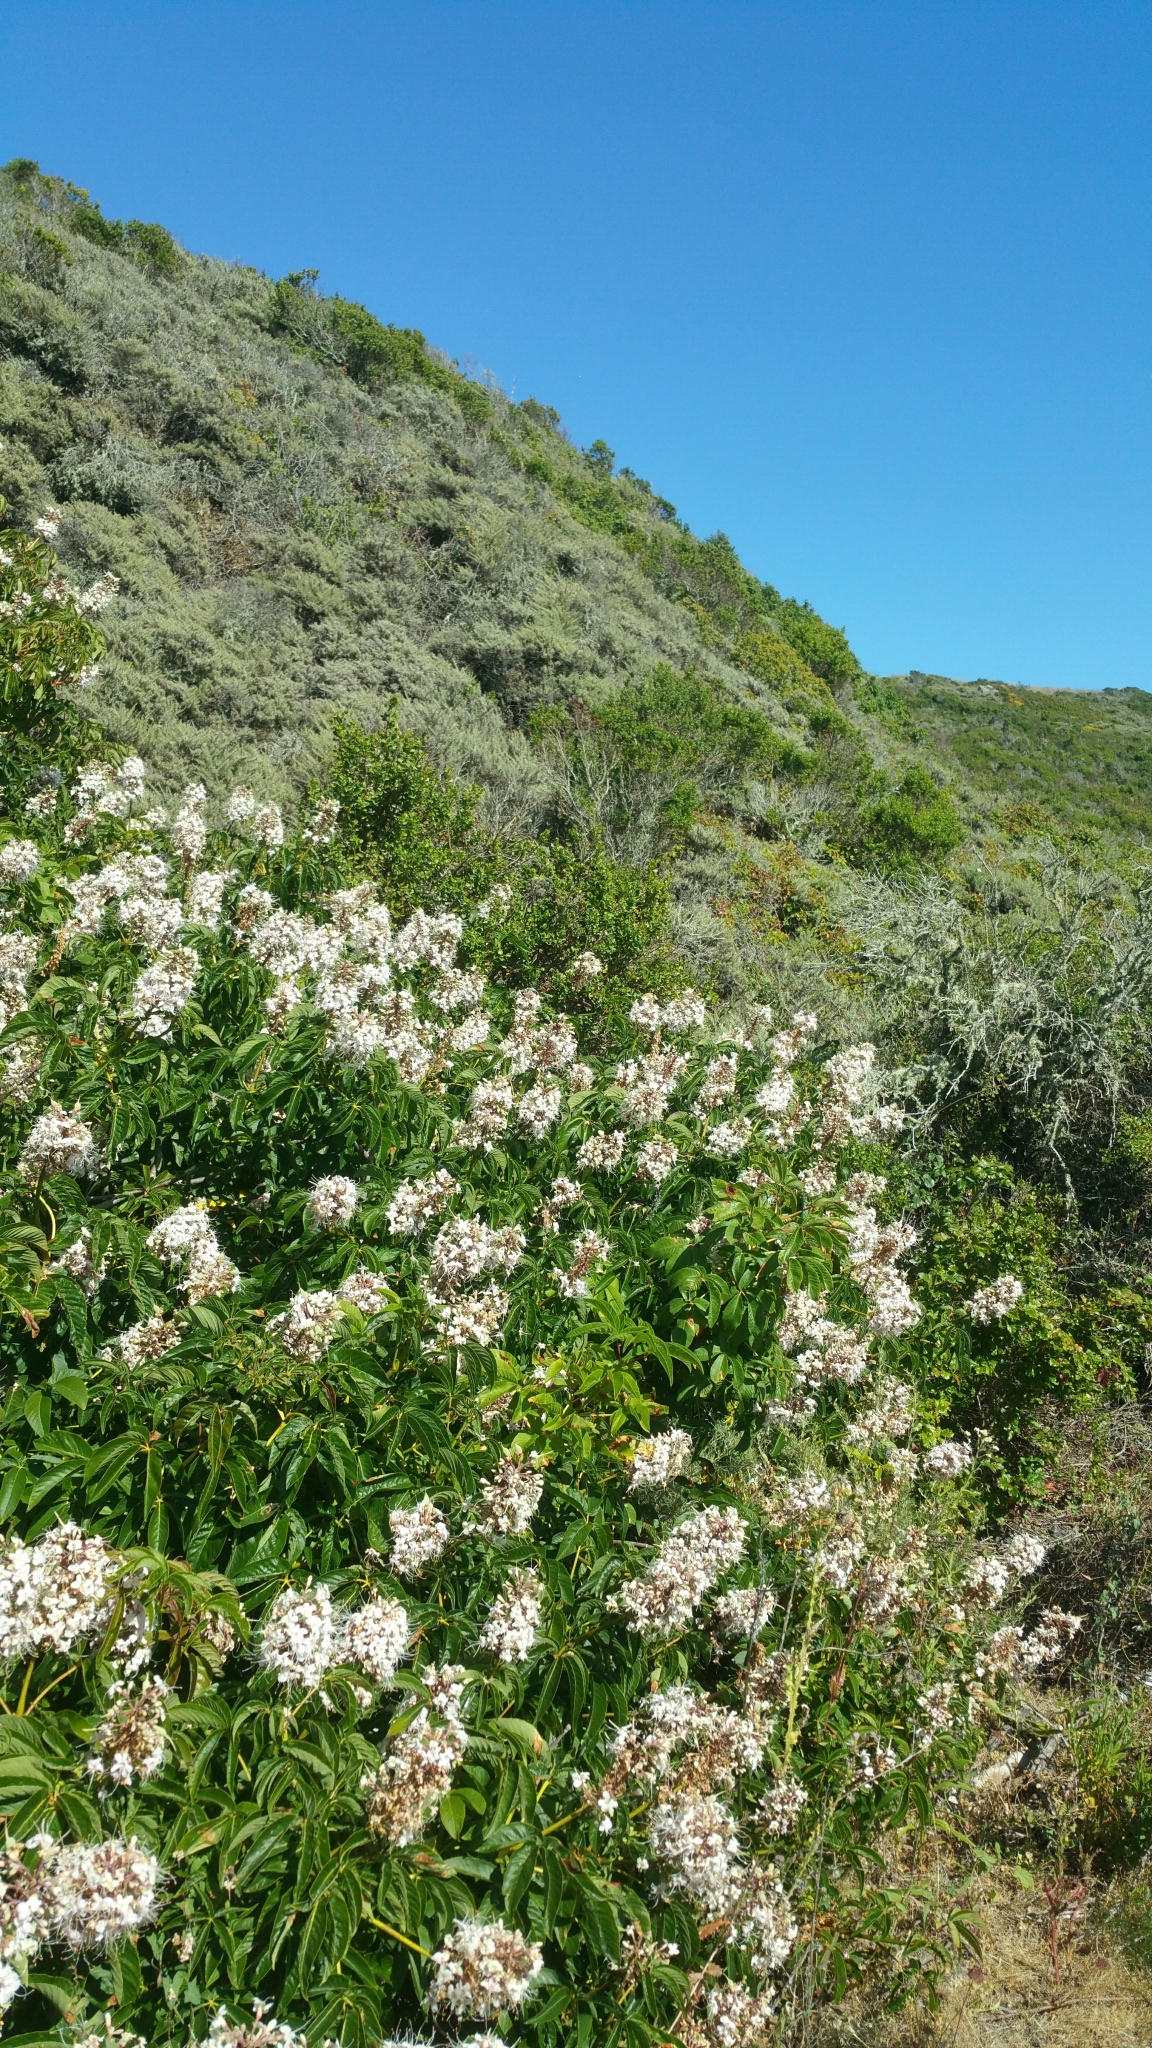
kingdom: Plantae
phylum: Tracheophyta
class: Magnoliopsida
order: Sapindales
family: Sapindaceae
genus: Aesculus
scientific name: Aesculus californica
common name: California buckeye
